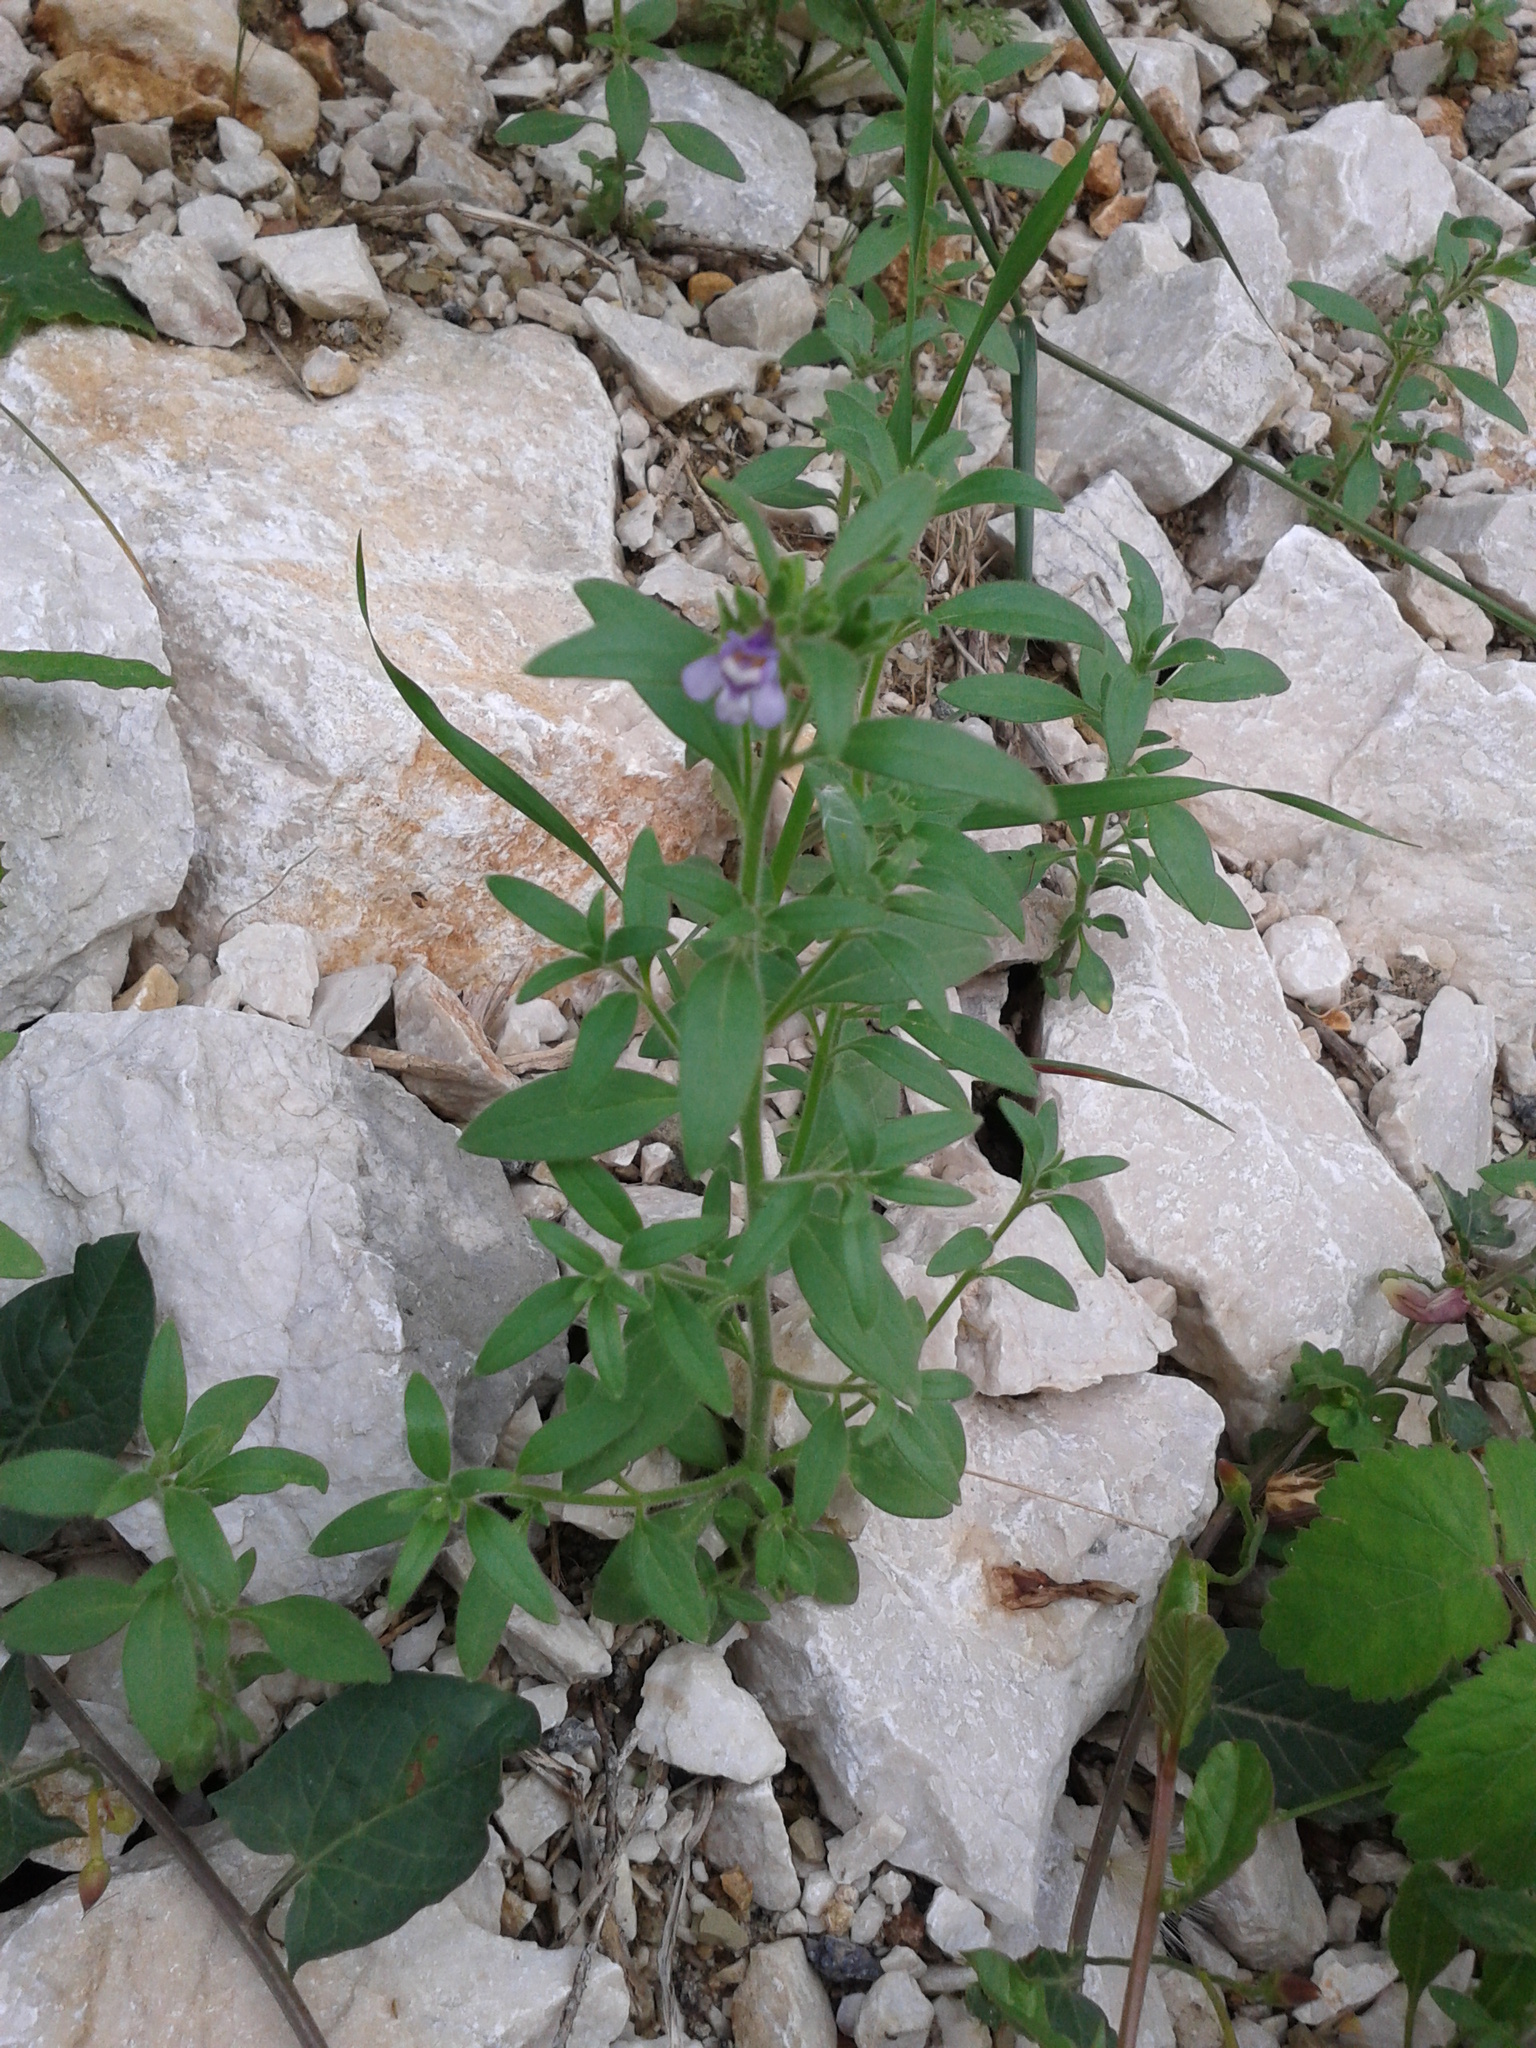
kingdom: Plantae
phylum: Tracheophyta
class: Magnoliopsida
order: Lamiales
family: Plantaginaceae
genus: Chaenorhinum
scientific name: Chaenorhinum litorale
